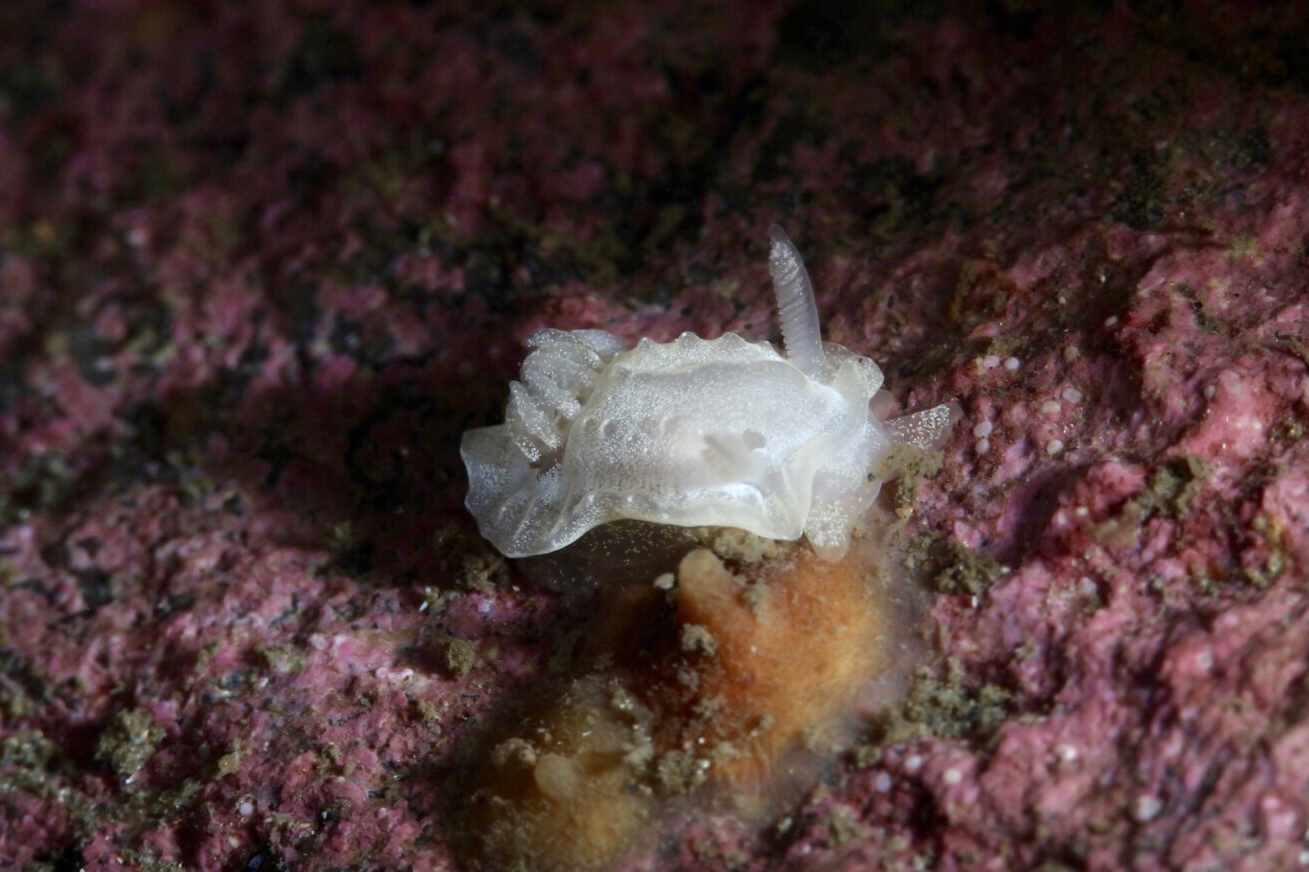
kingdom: Animalia
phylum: Mollusca
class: Gastropoda
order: Nudibranchia
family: Goniodorididae
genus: Okenia
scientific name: Okenia
